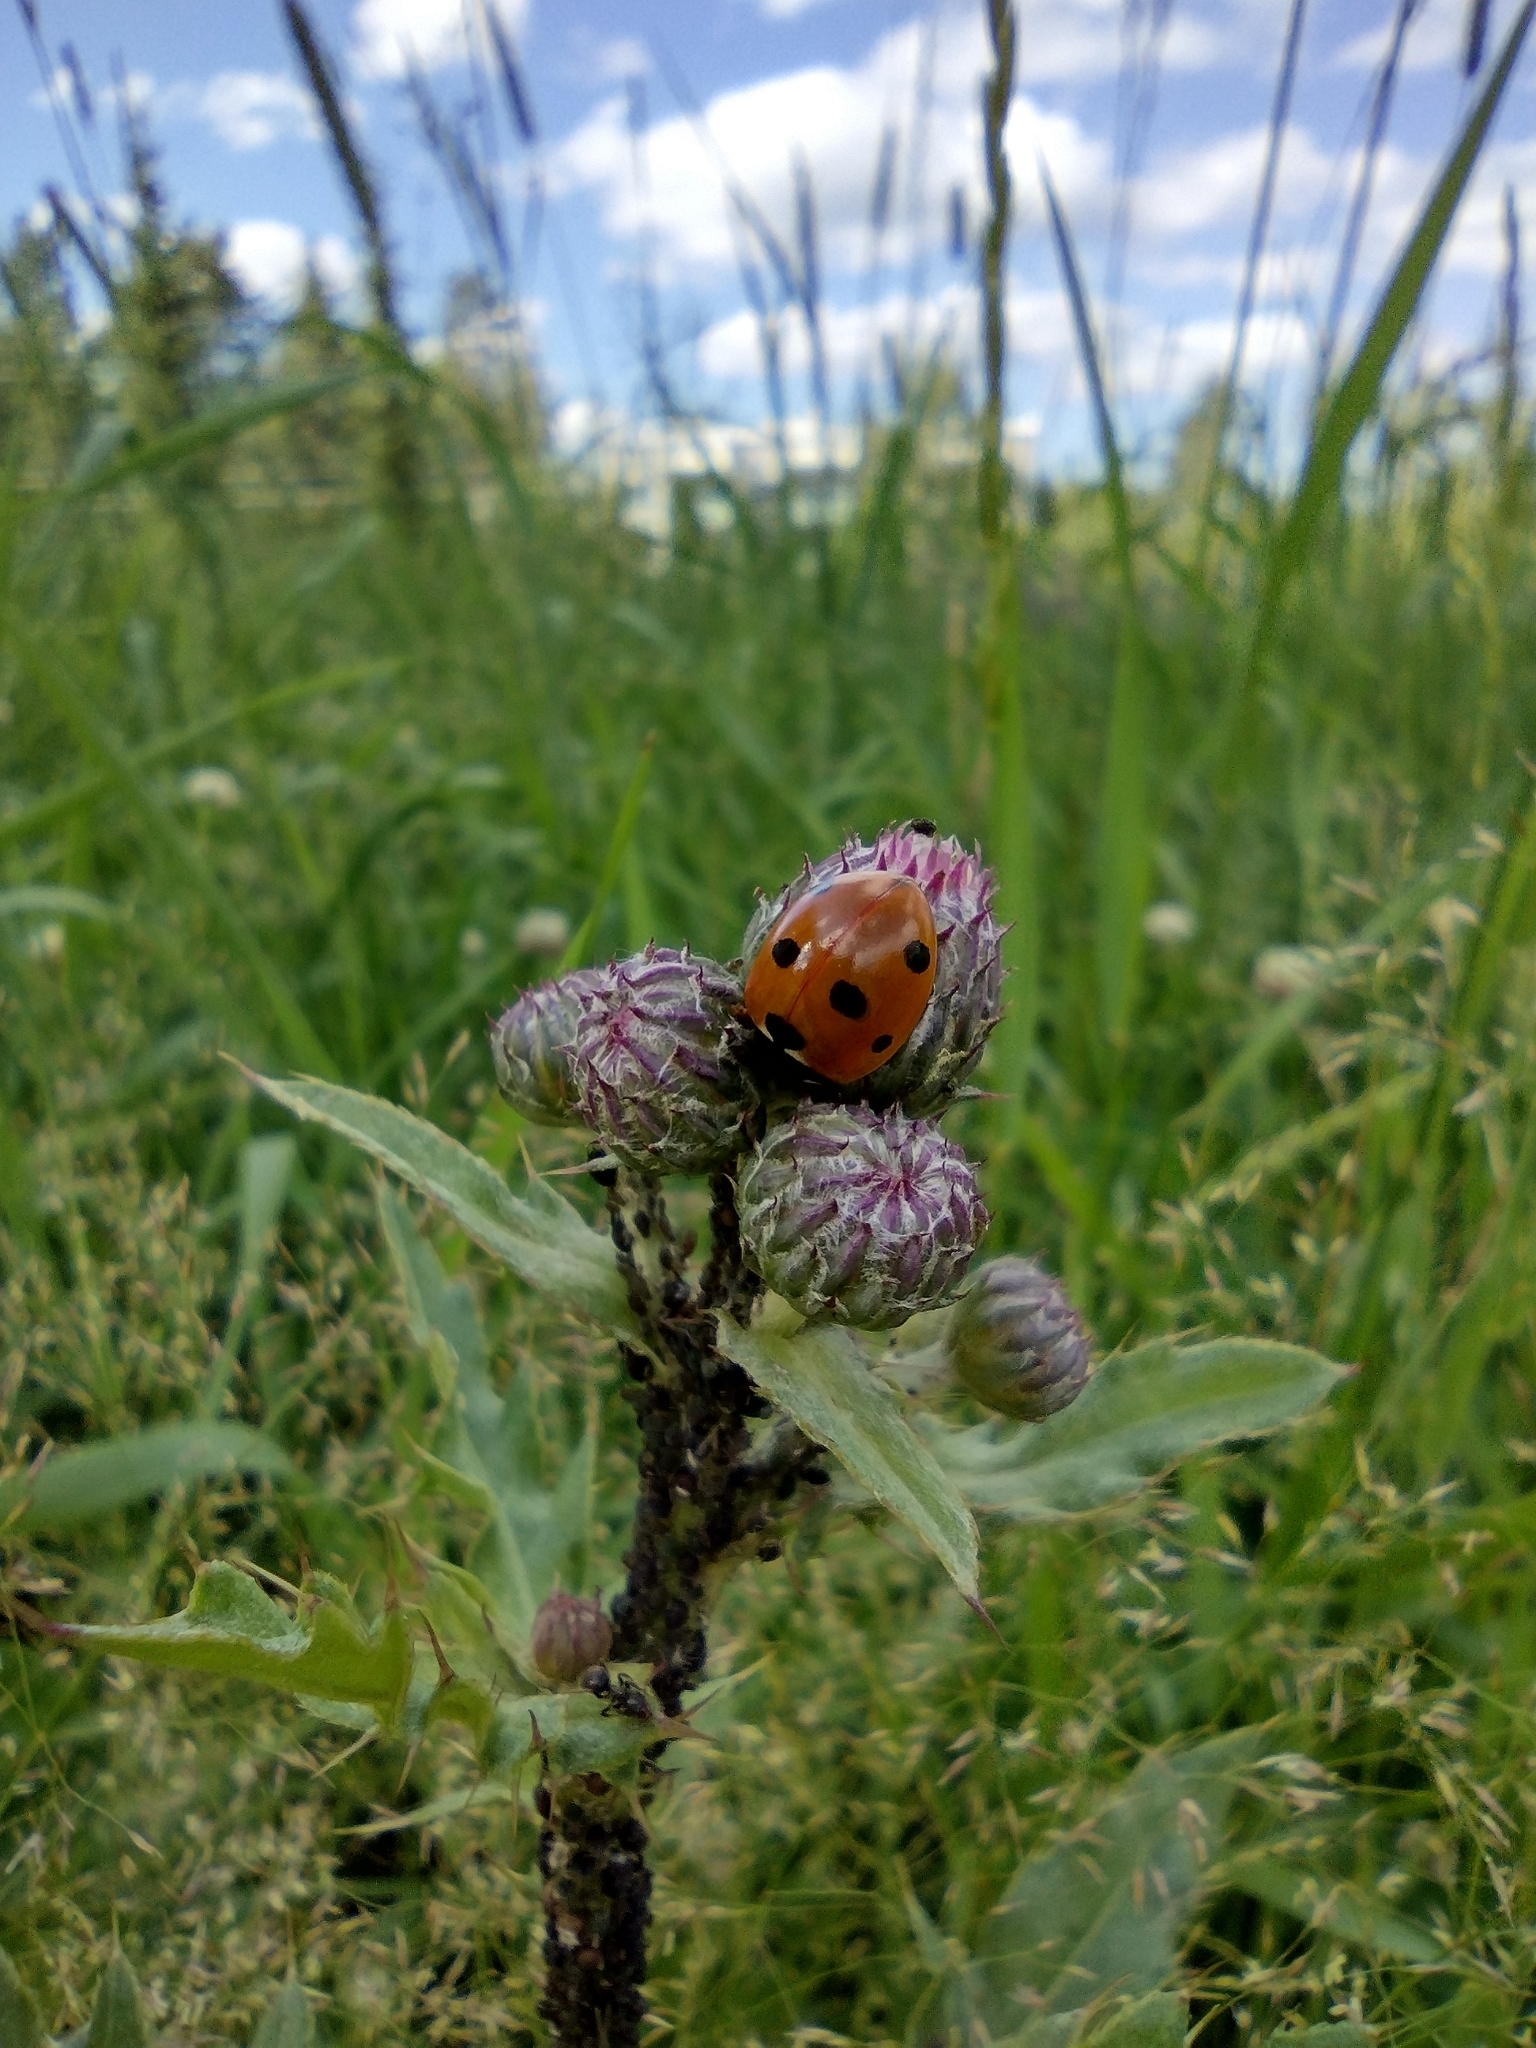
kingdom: Animalia
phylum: Arthropoda
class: Insecta
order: Coleoptera
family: Coccinellidae
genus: Coccinella
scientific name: Coccinella septempunctata
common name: Sevenspotted lady beetle
